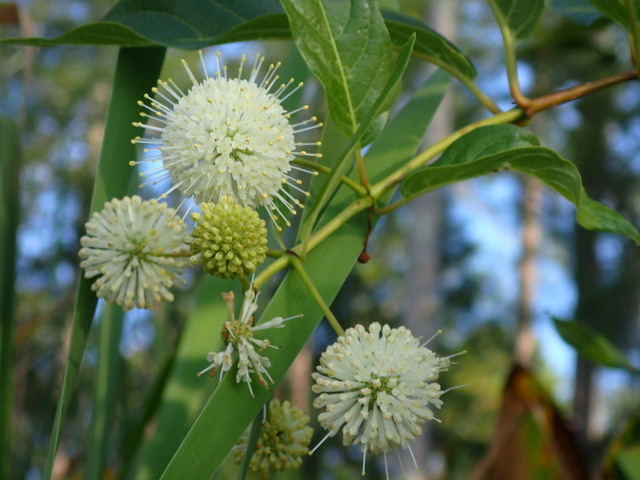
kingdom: Plantae
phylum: Tracheophyta
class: Magnoliopsida
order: Gentianales
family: Rubiaceae
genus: Cephalanthus
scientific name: Cephalanthus occidentalis
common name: Button-willow
